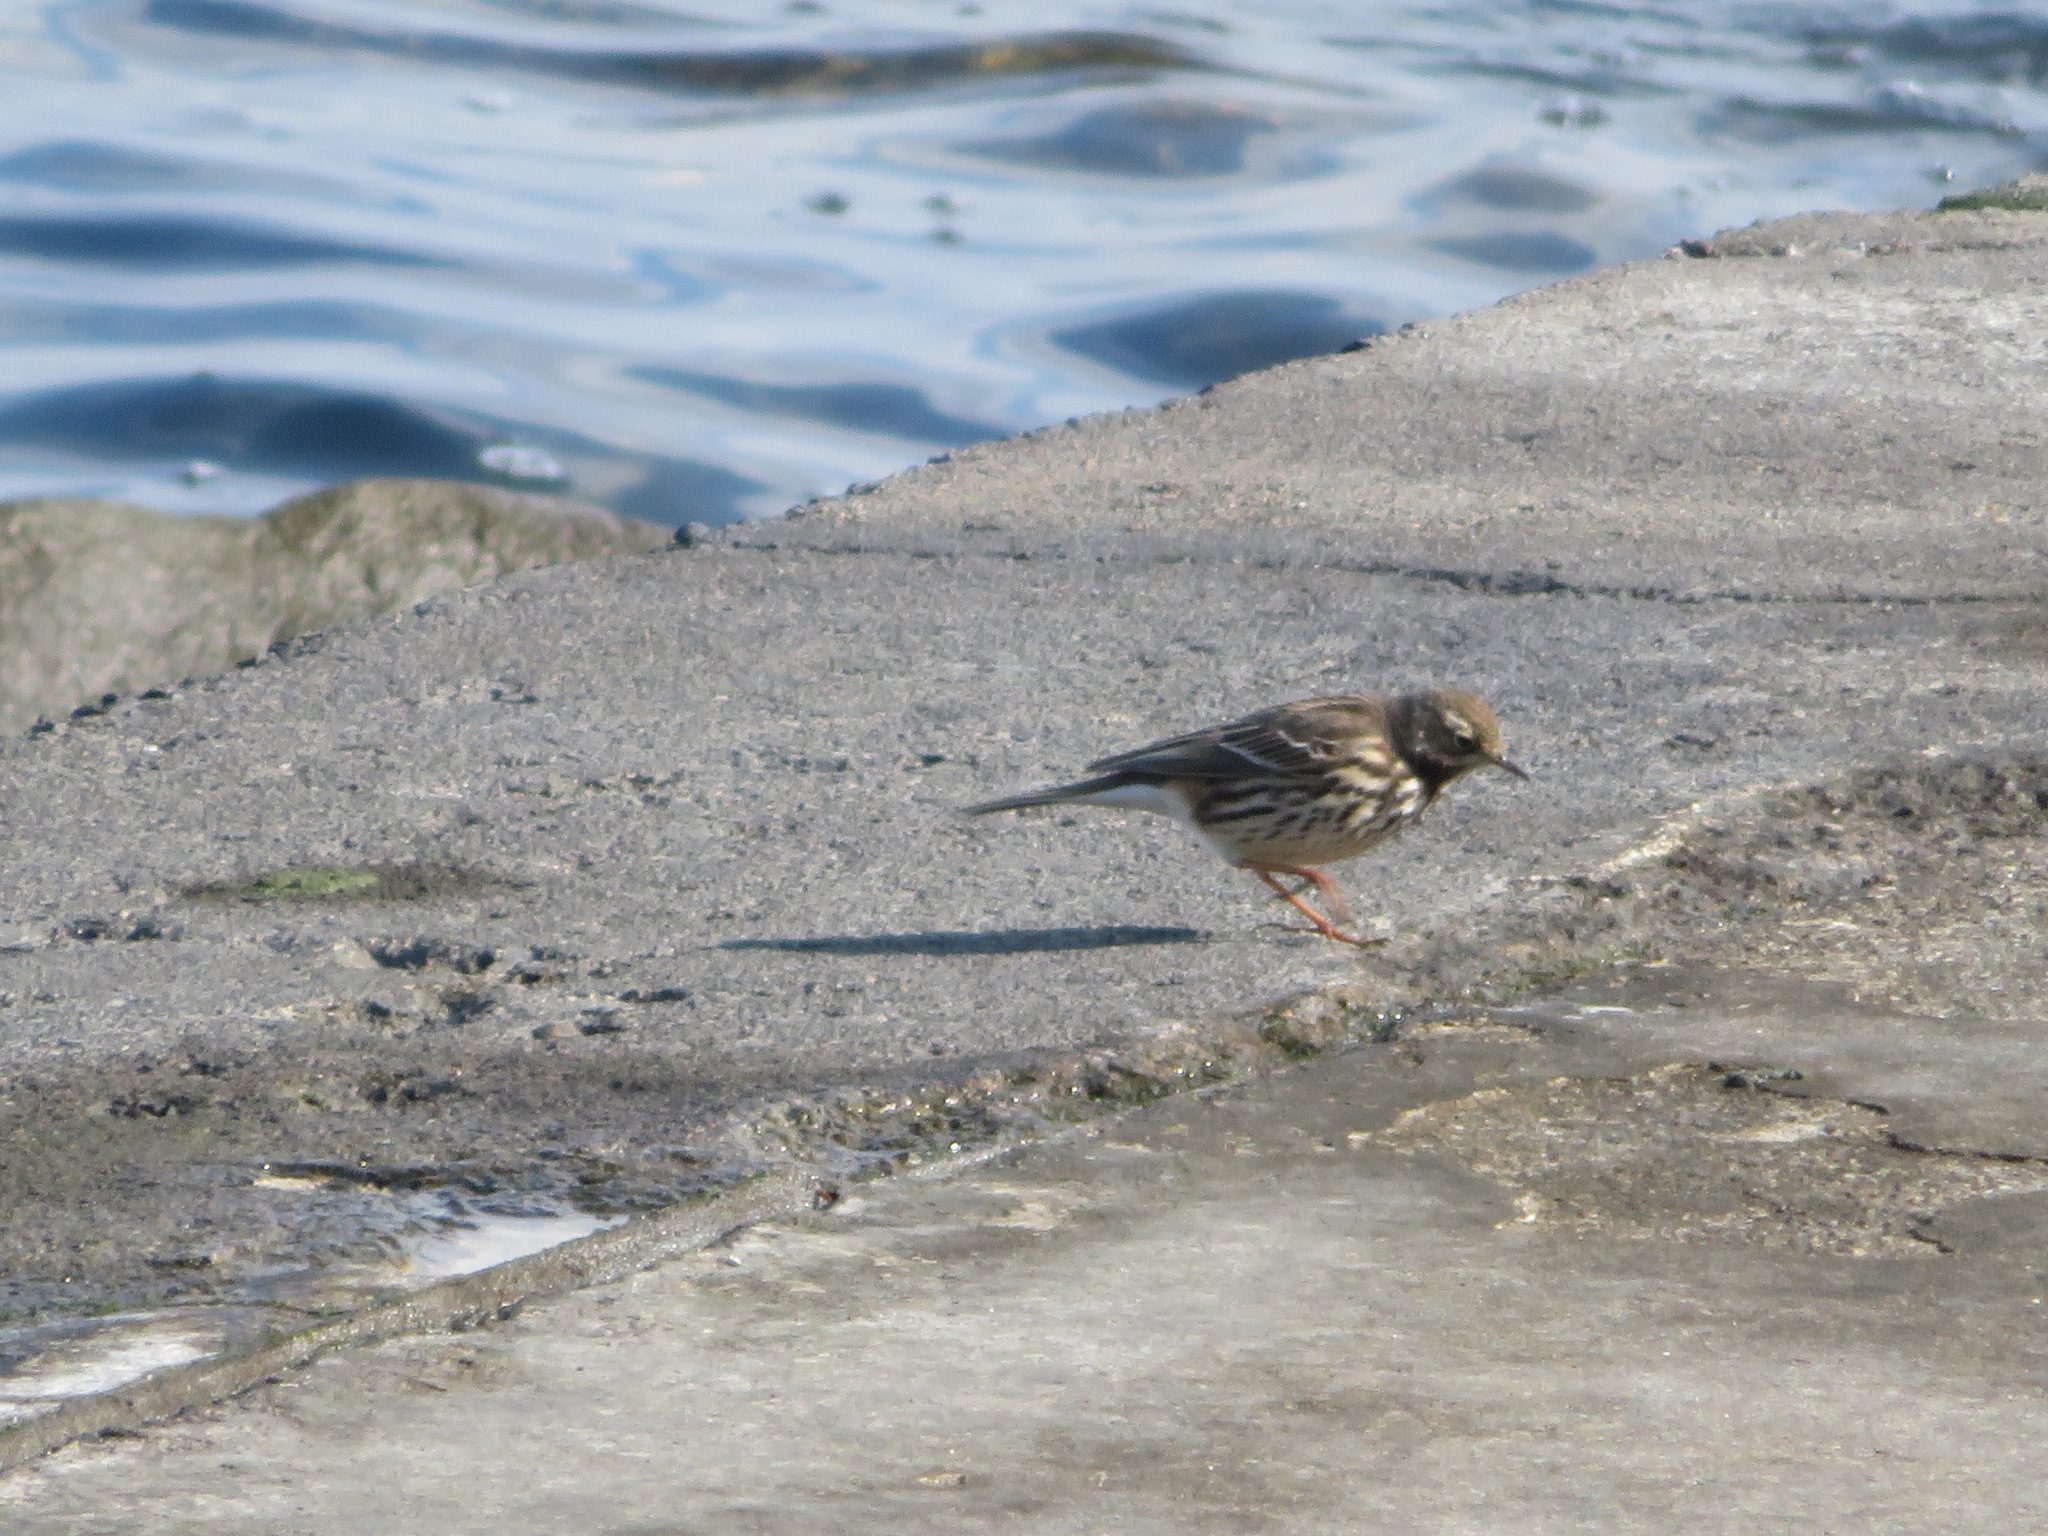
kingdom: Animalia
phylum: Chordata
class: Aves
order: Passeriformes
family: Motacillidae
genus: Anthus
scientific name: Anthus rubescens
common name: Buff-bellied pipit
